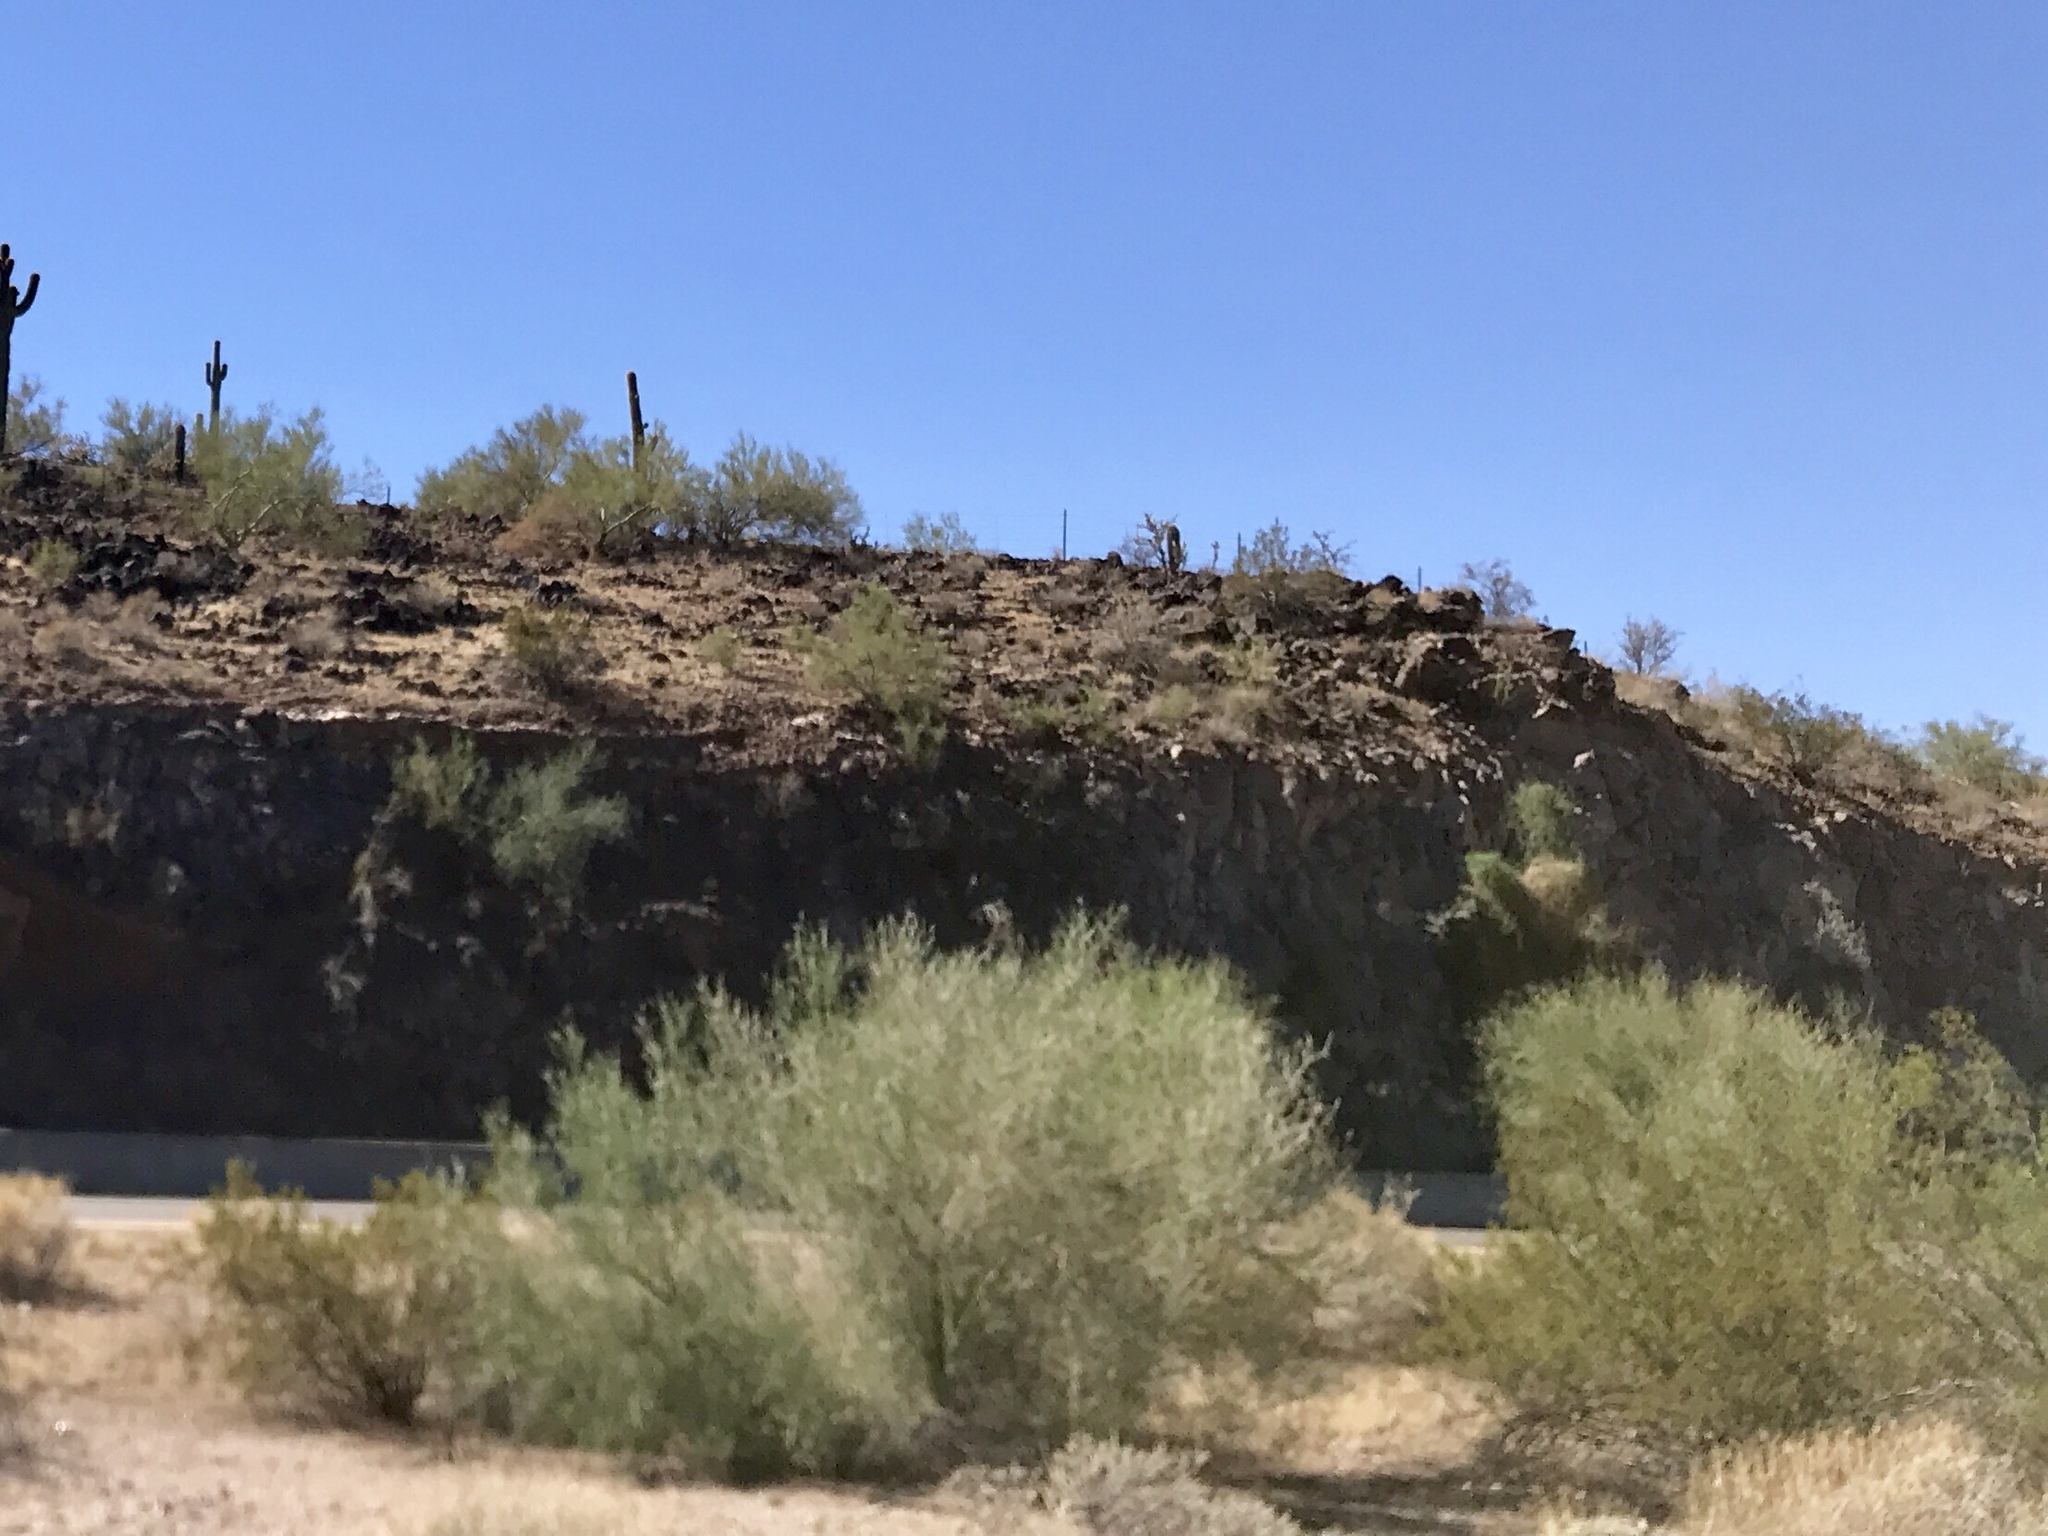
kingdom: Plantae
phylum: Tracheophyta
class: Magnoliopsida
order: Fabales
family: Fabaceae
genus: Parkinsonia
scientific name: Parkinsonia florida
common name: Blue paloverde
